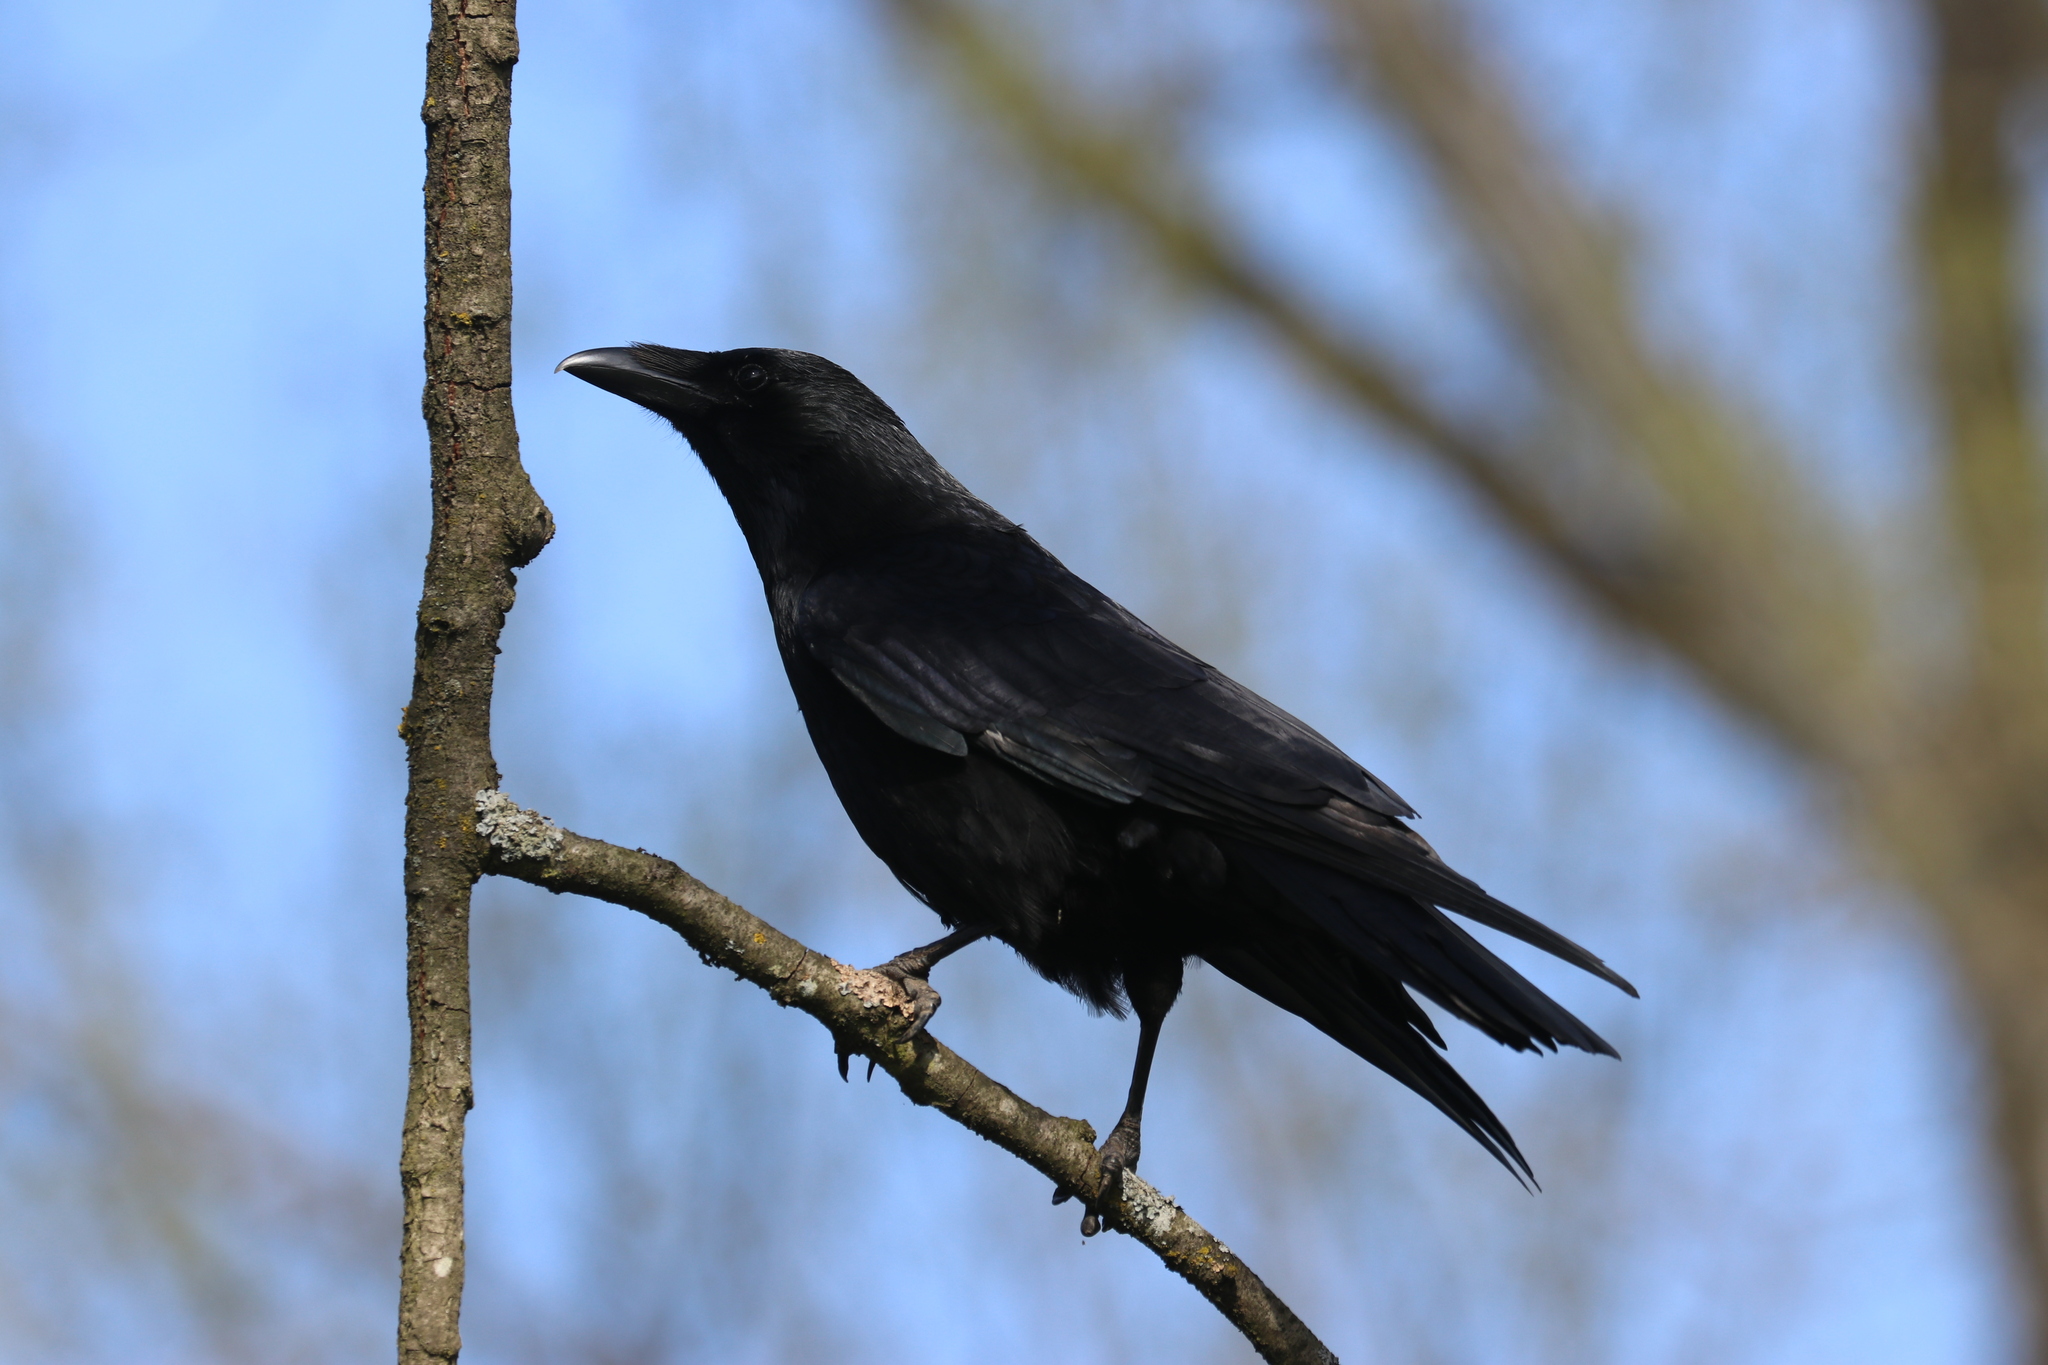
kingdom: Animalia
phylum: Chordata
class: Aves
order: Passeriformes
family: Corvidae
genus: Corvus
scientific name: Corvus corone
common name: Carrion crow
